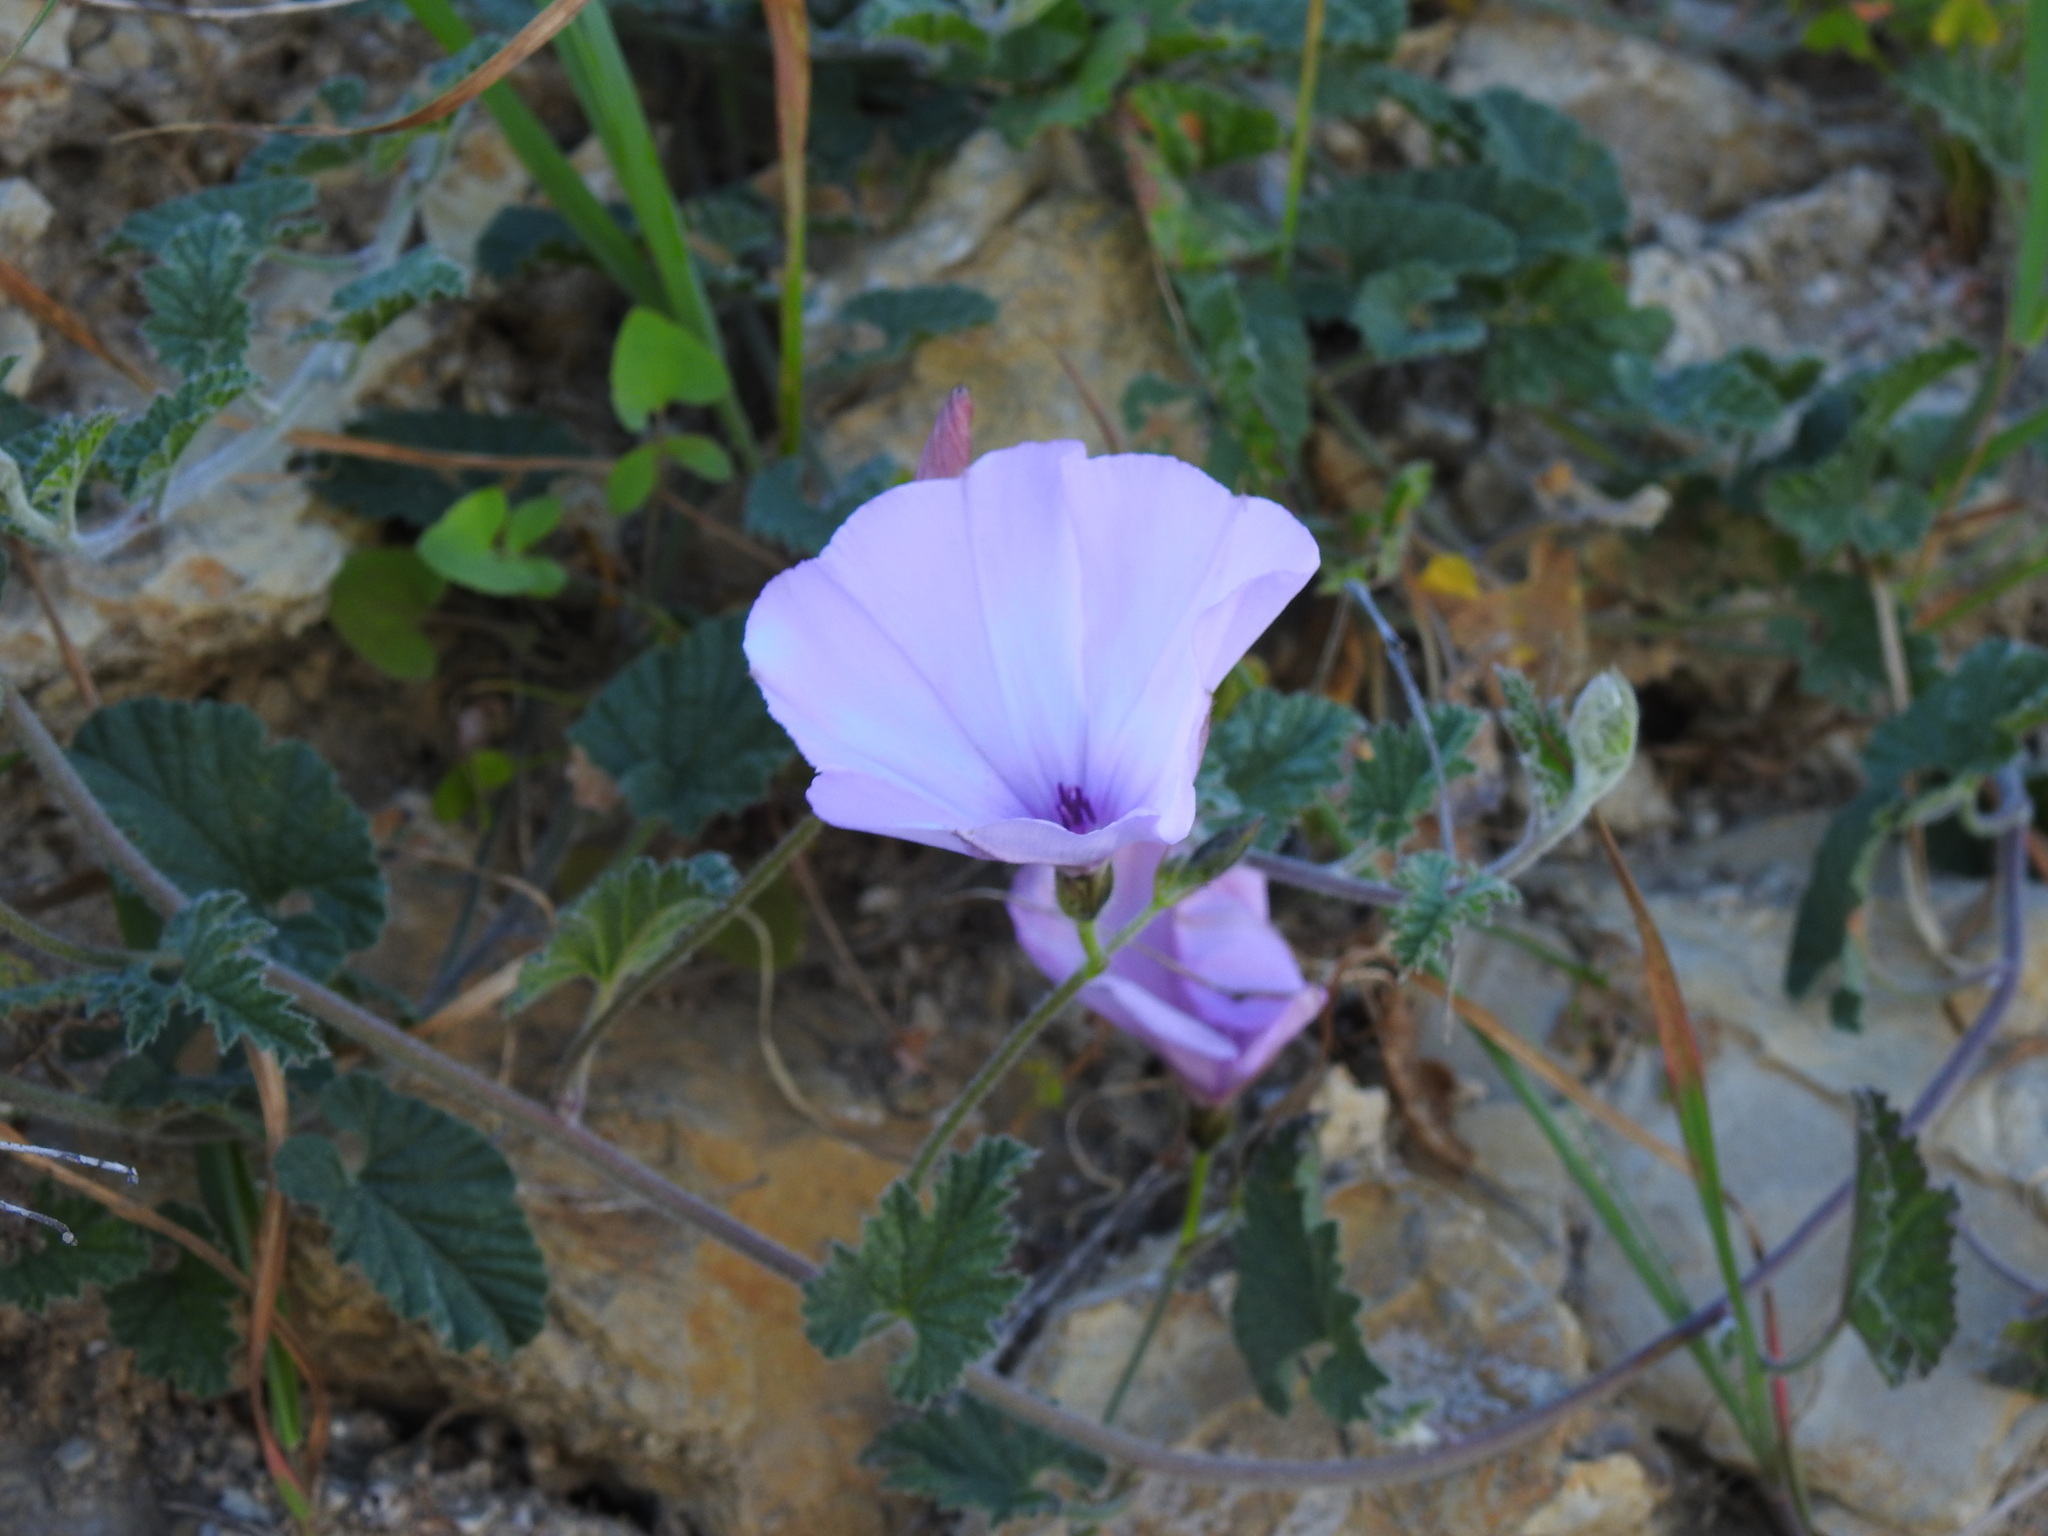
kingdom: Plantae
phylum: Tracheophyta
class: Magnoliopsida
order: Solanales
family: Convolvulaceae
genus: Convolvulus
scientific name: Convolvulus althaeoides
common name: Mallow bindweed
